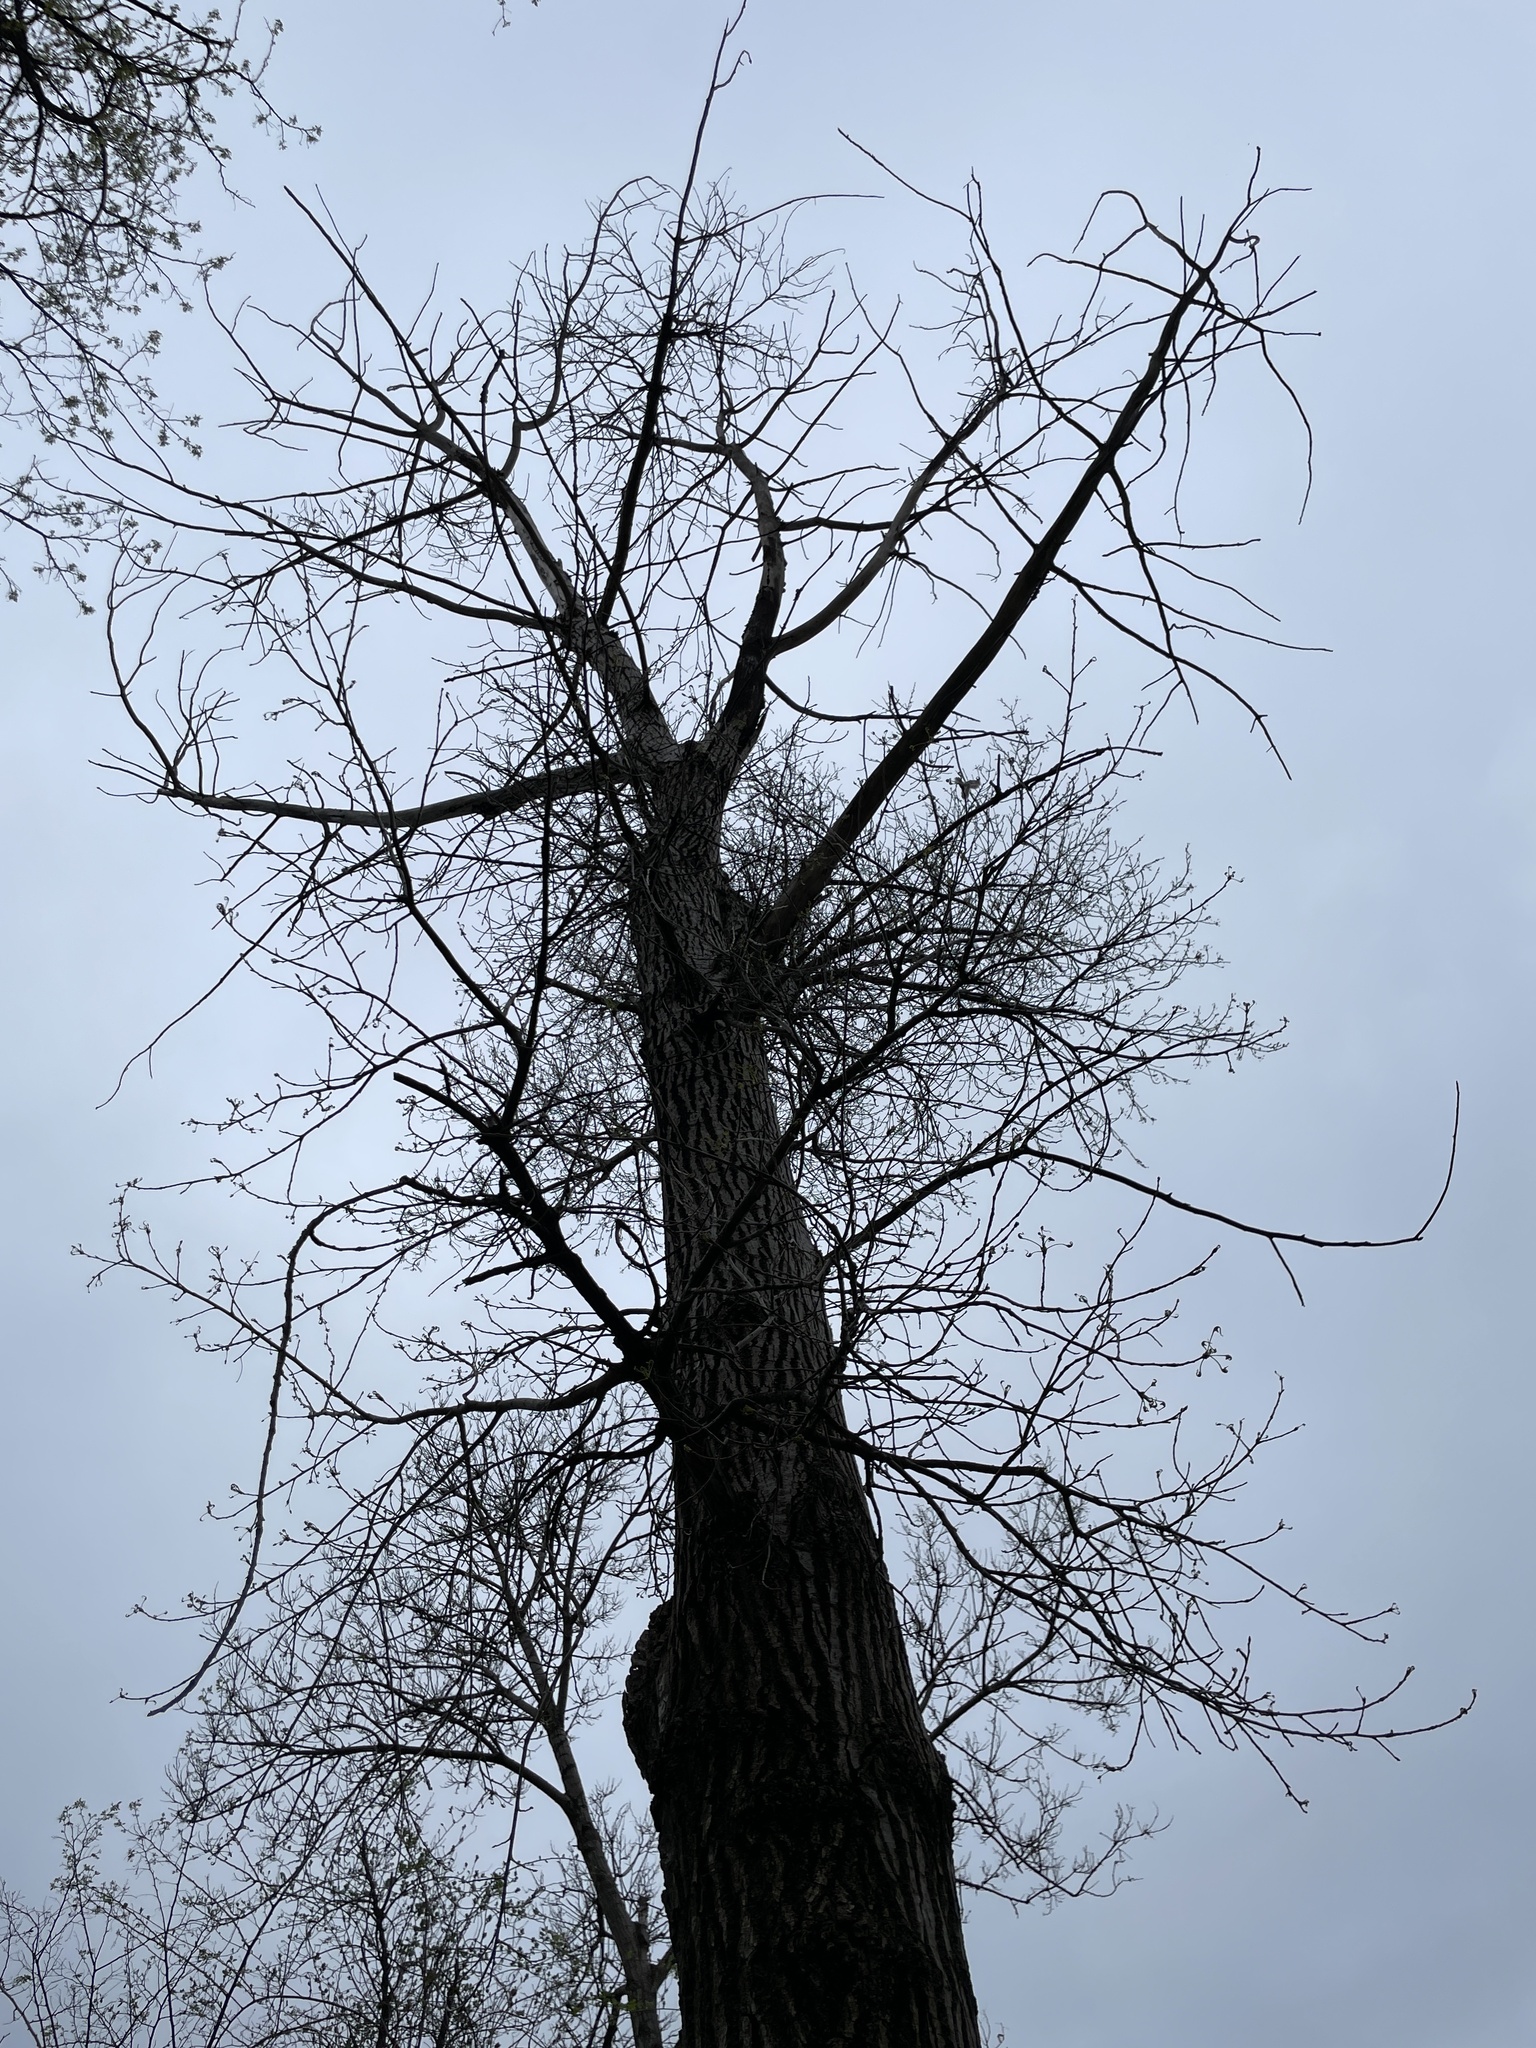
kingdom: Plantae
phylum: Tracheophyta
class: Magnoliopsida
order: Malpighiales
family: Salicaceae
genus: Populus
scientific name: Populus deltoides
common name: Eastern cottonwood
